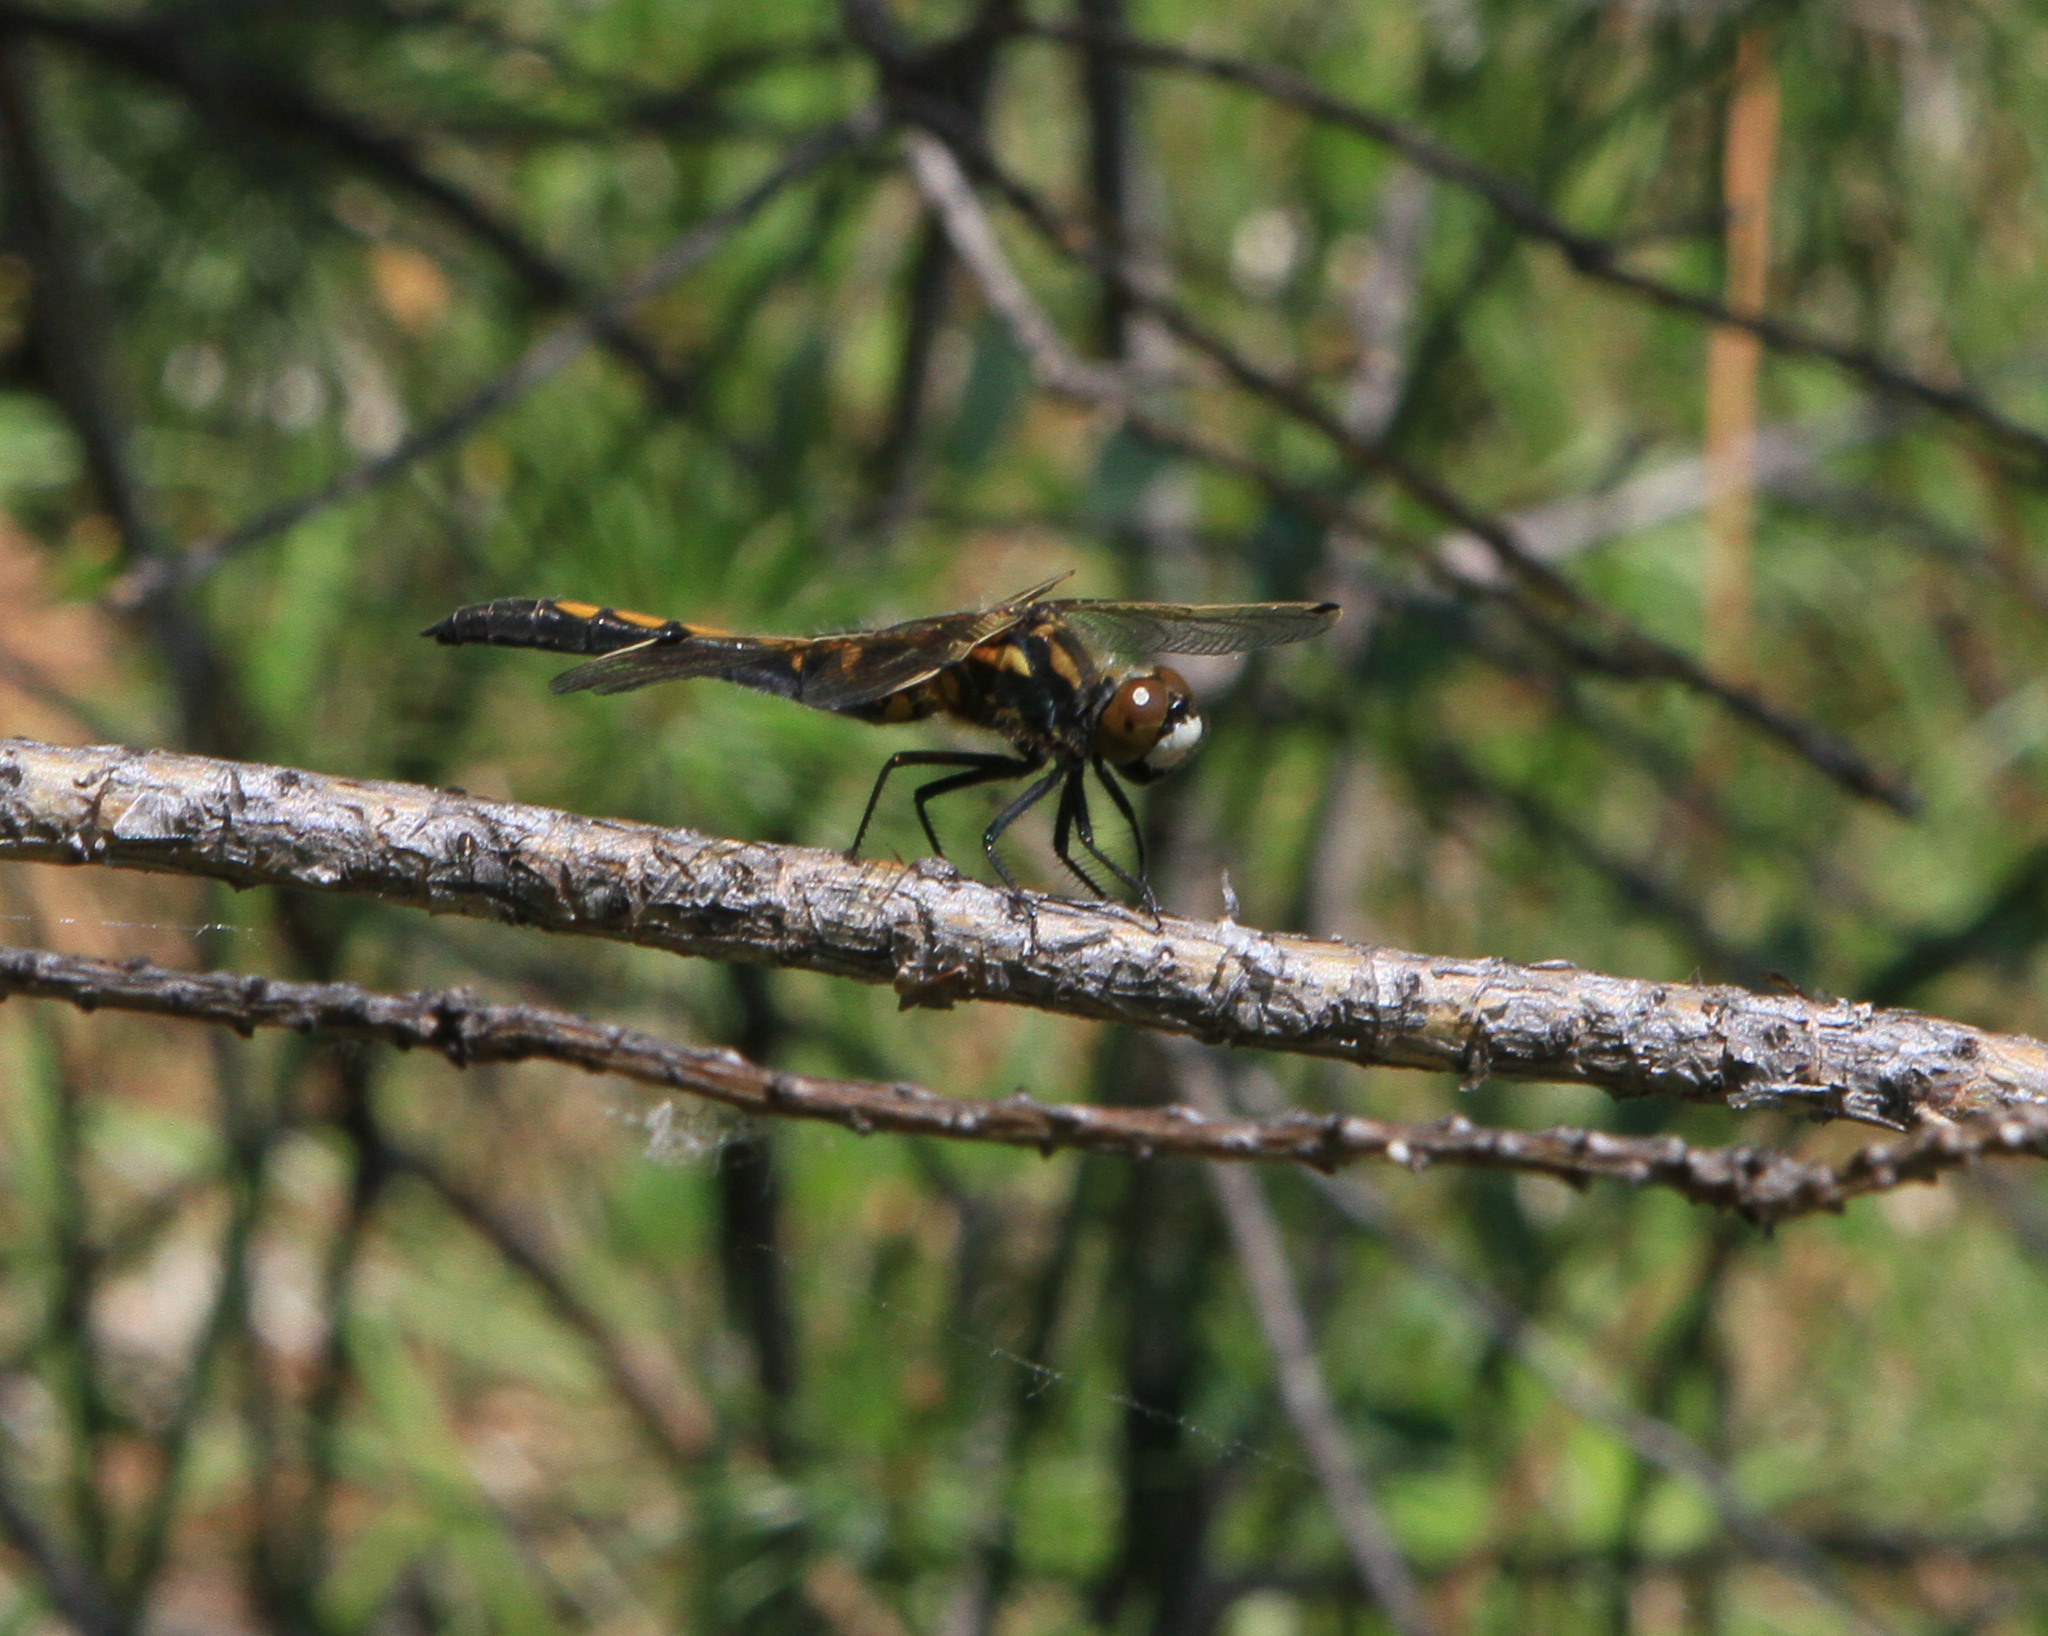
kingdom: Animalia
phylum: Arthropoda
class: Insecta
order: Odonata
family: Libellulidae
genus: Leucorrhinia
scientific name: Leucorrhinia rubicunda
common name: Ruby whiteface
